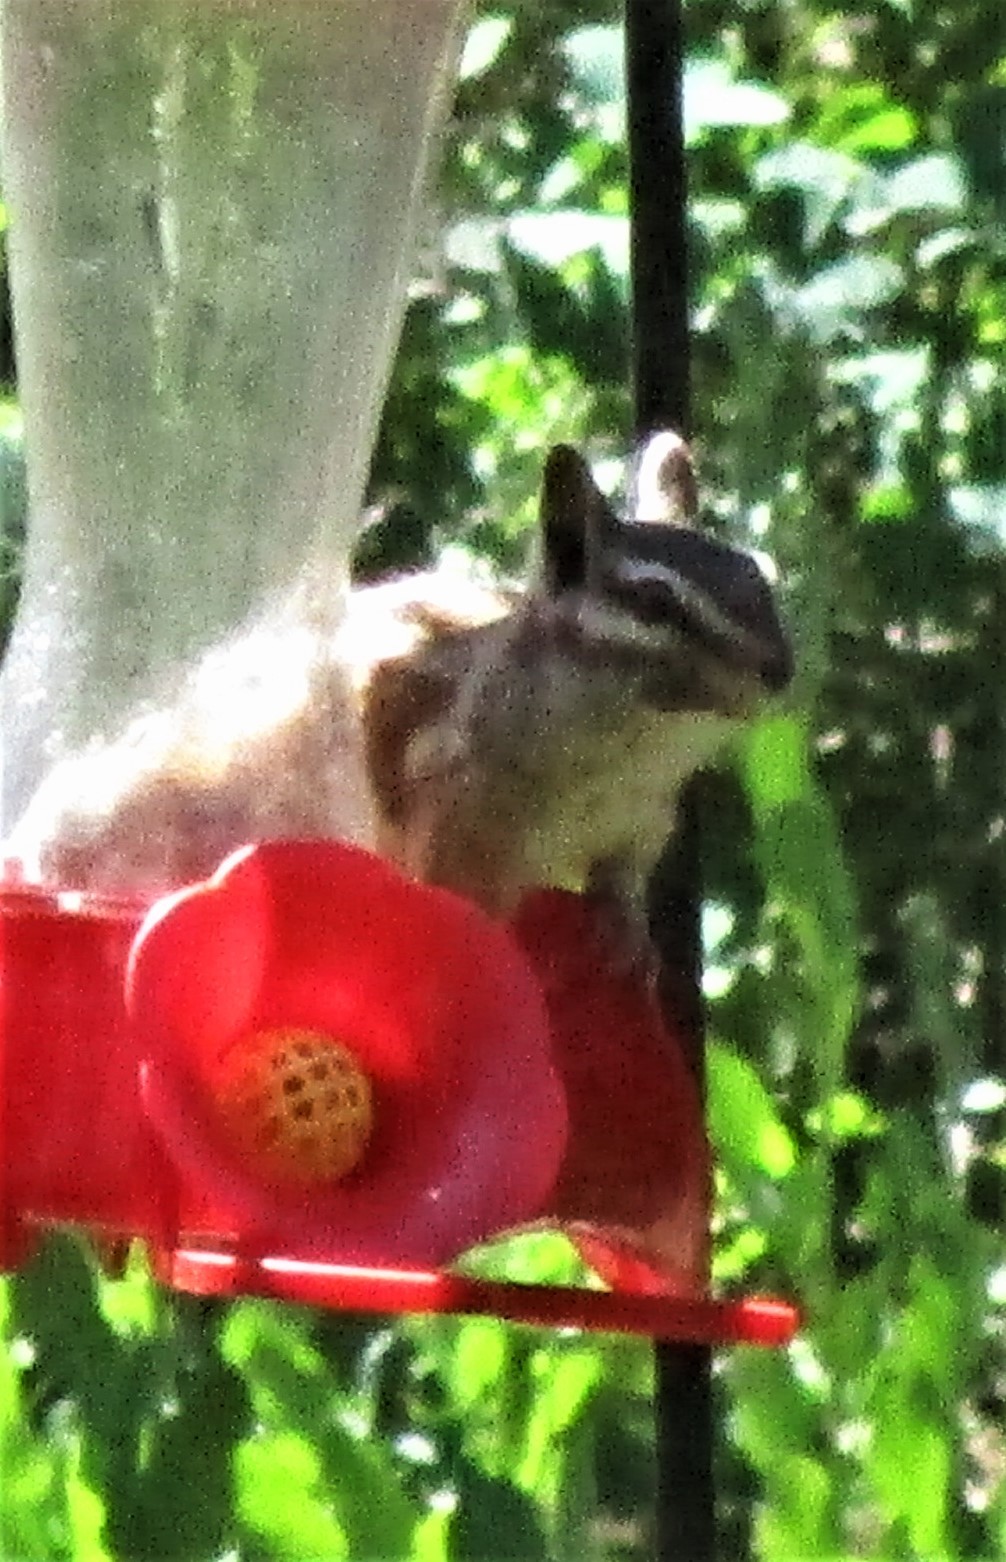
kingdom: Animalia
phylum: Chordata
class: Mammalia
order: Rodentia
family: Sciuridae
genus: Tamias
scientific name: Tamias cinereicollis
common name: Gray-collared chipmunk
